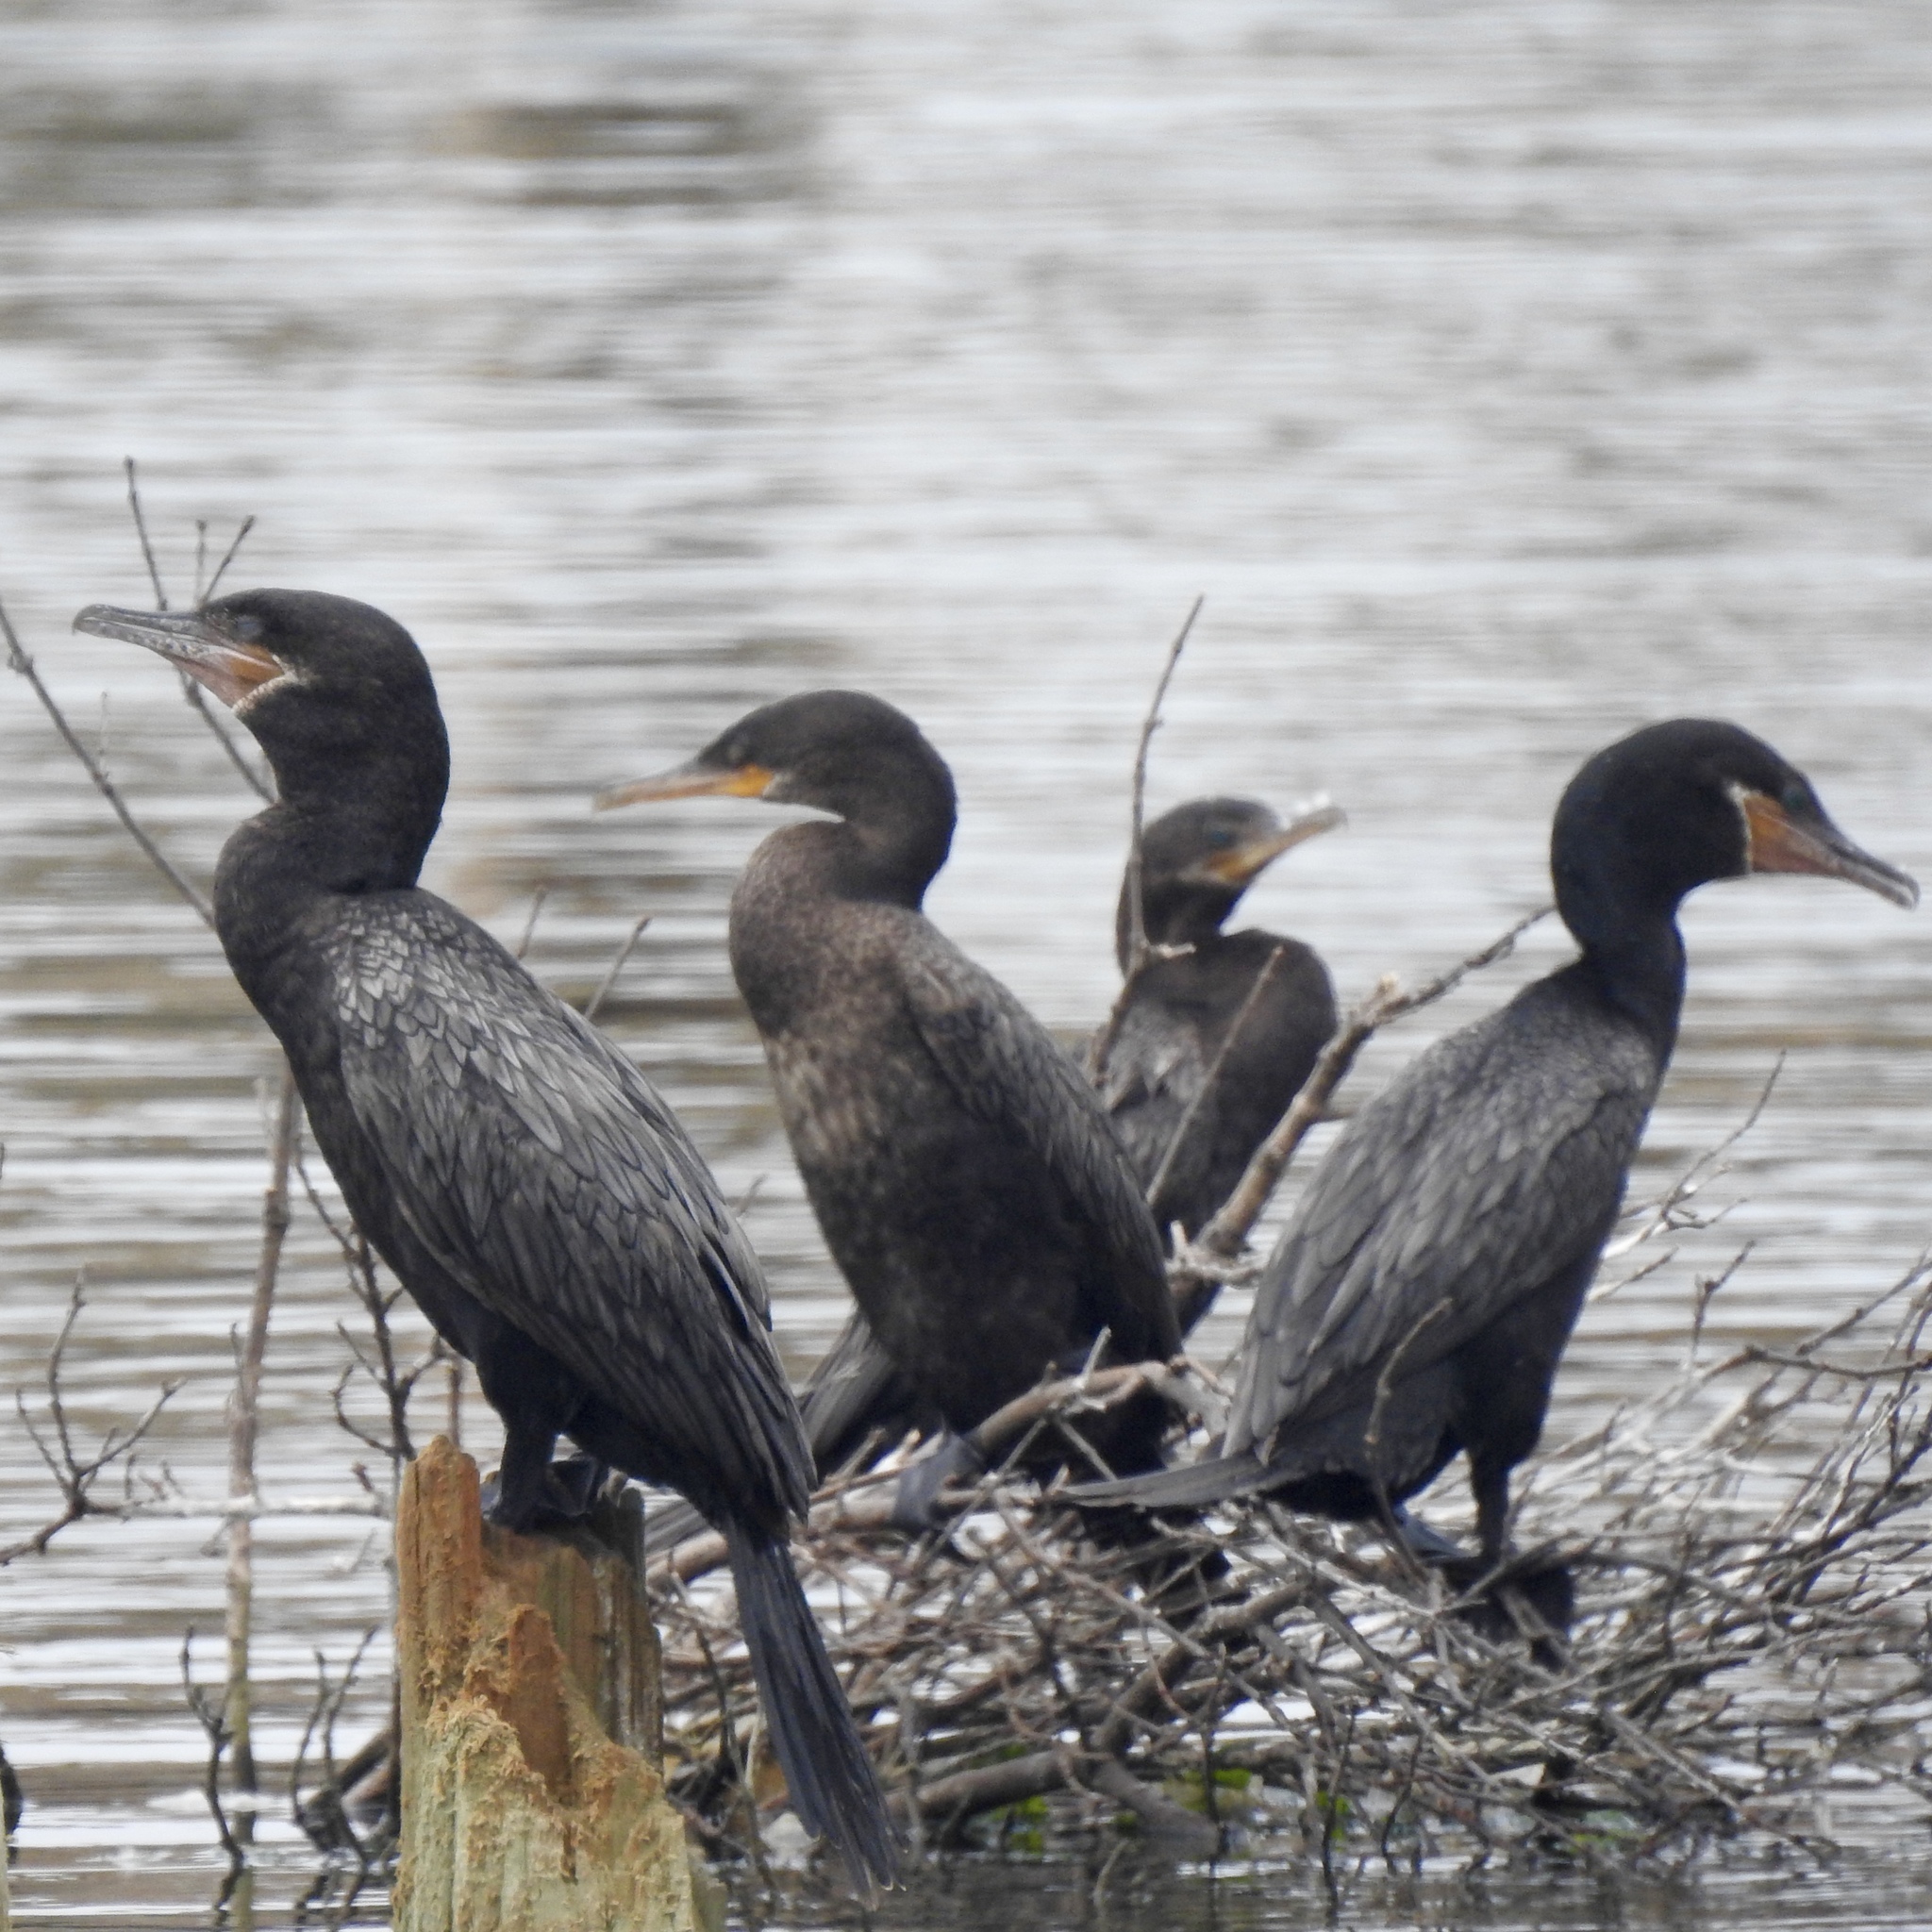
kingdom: Animalia
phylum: Chordata
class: Aves
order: Suliformes
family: Phalacrocoracidae
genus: Phalacrocorax
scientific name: Phalacrocorax brasilianus
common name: Neotropic cormorant
